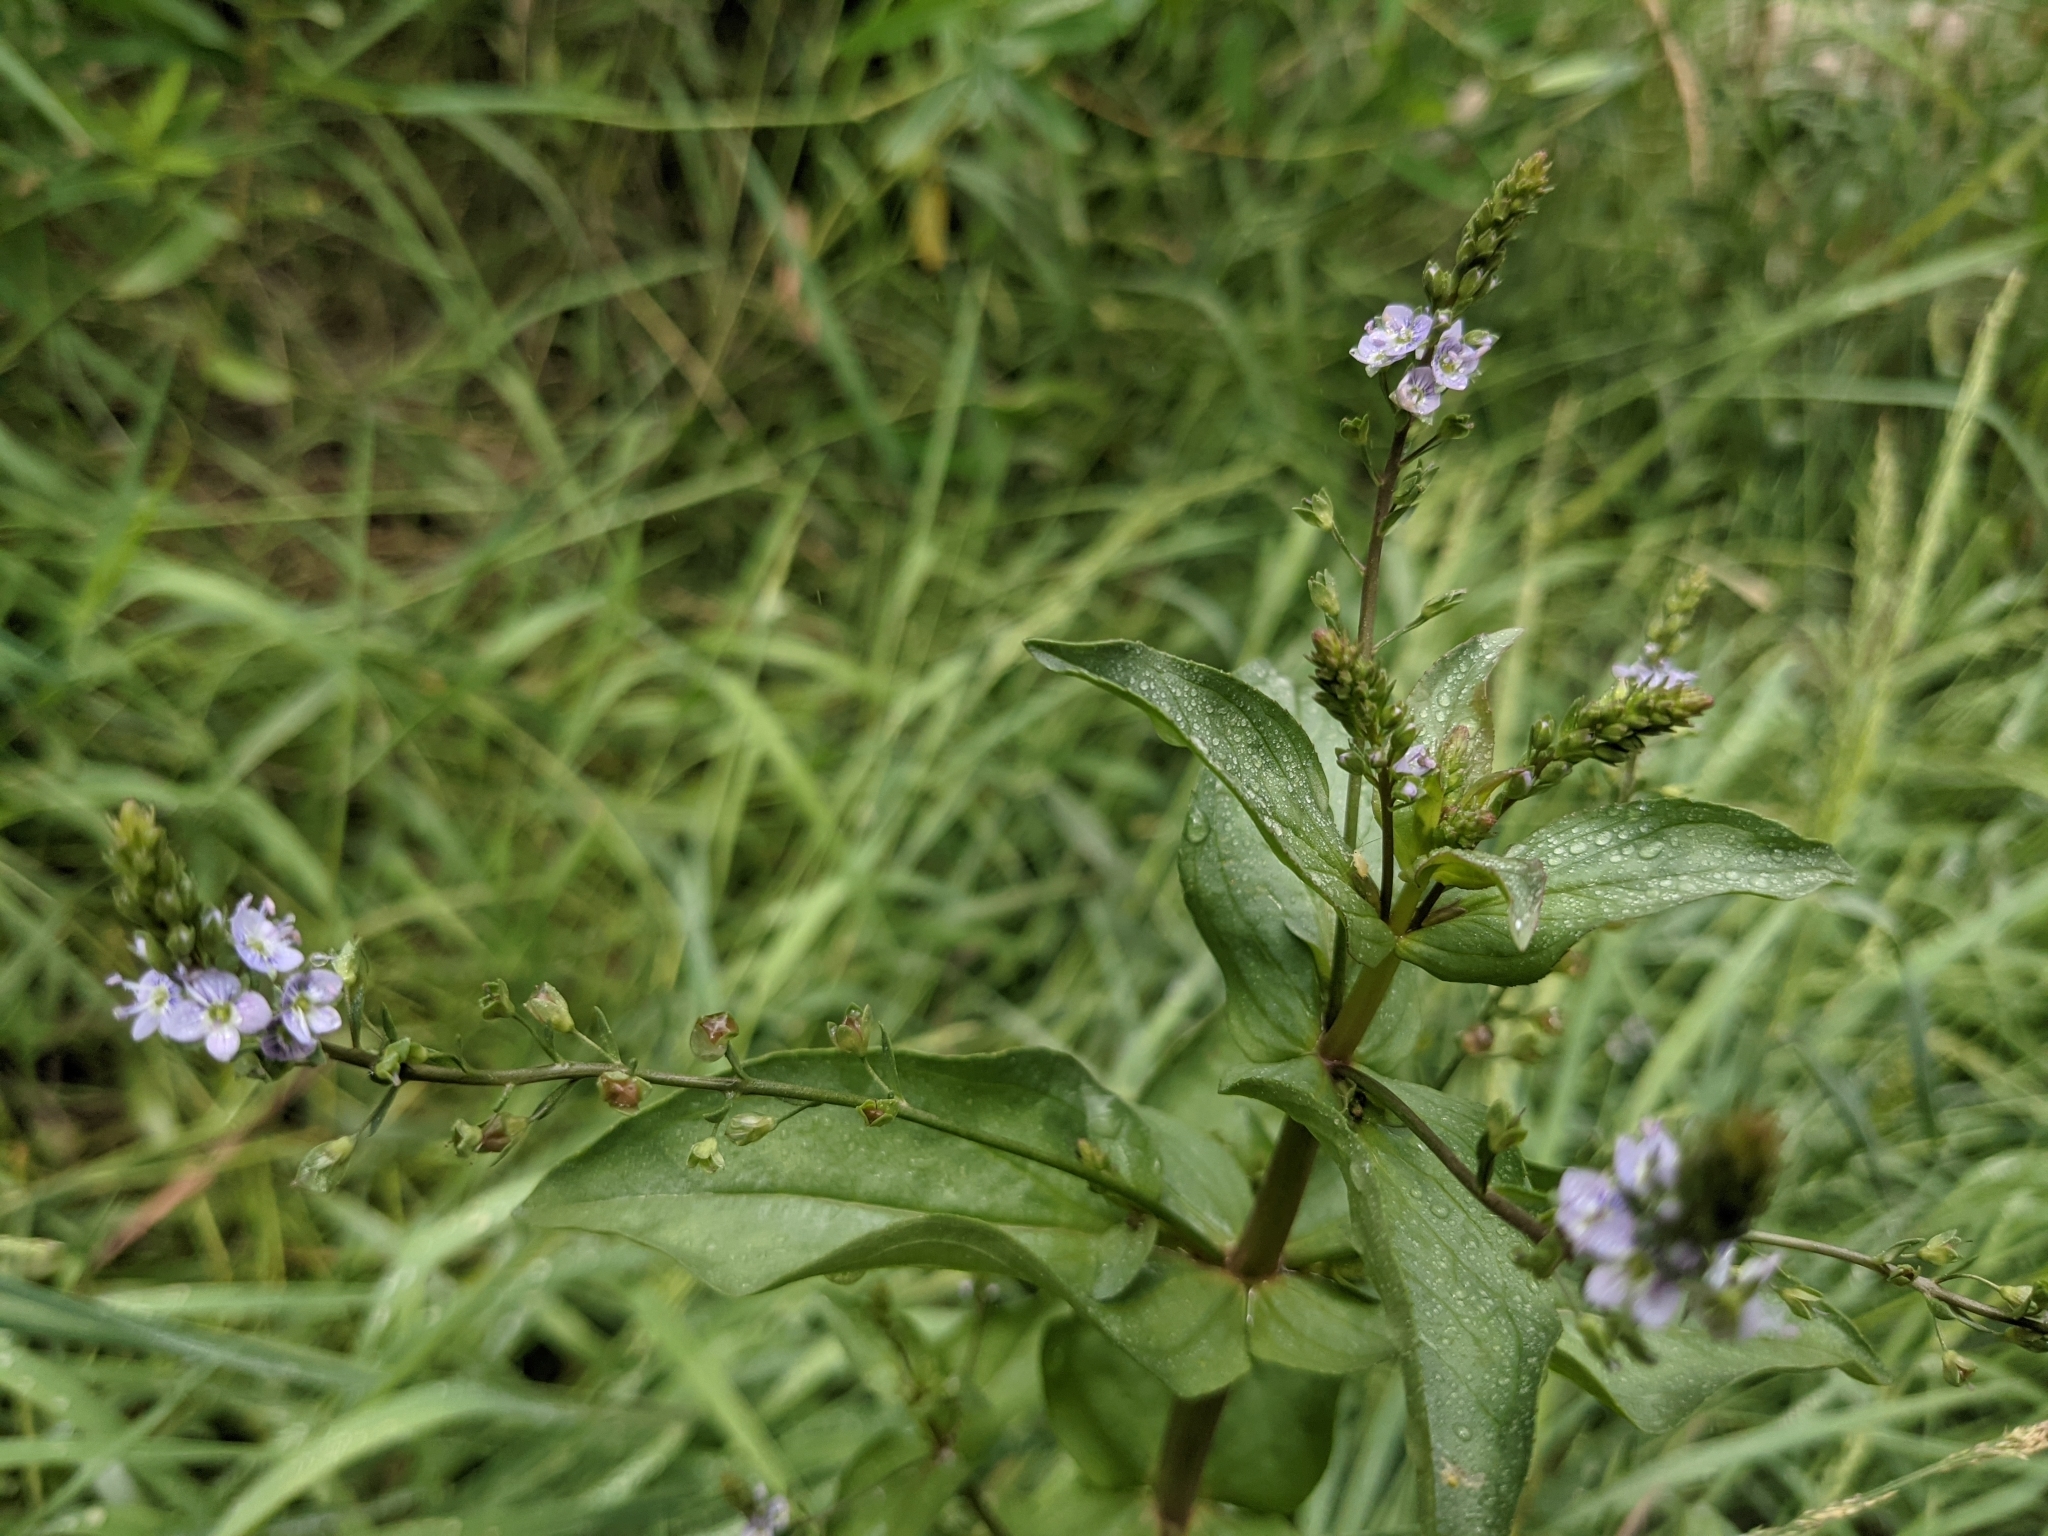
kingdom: Plantae
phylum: Tracheophyta
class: Magnoliopsida
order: Lamiales
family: Plantaginaceae
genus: Veronica
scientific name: Veronica anagallis-aquatica
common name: Water speedwell
